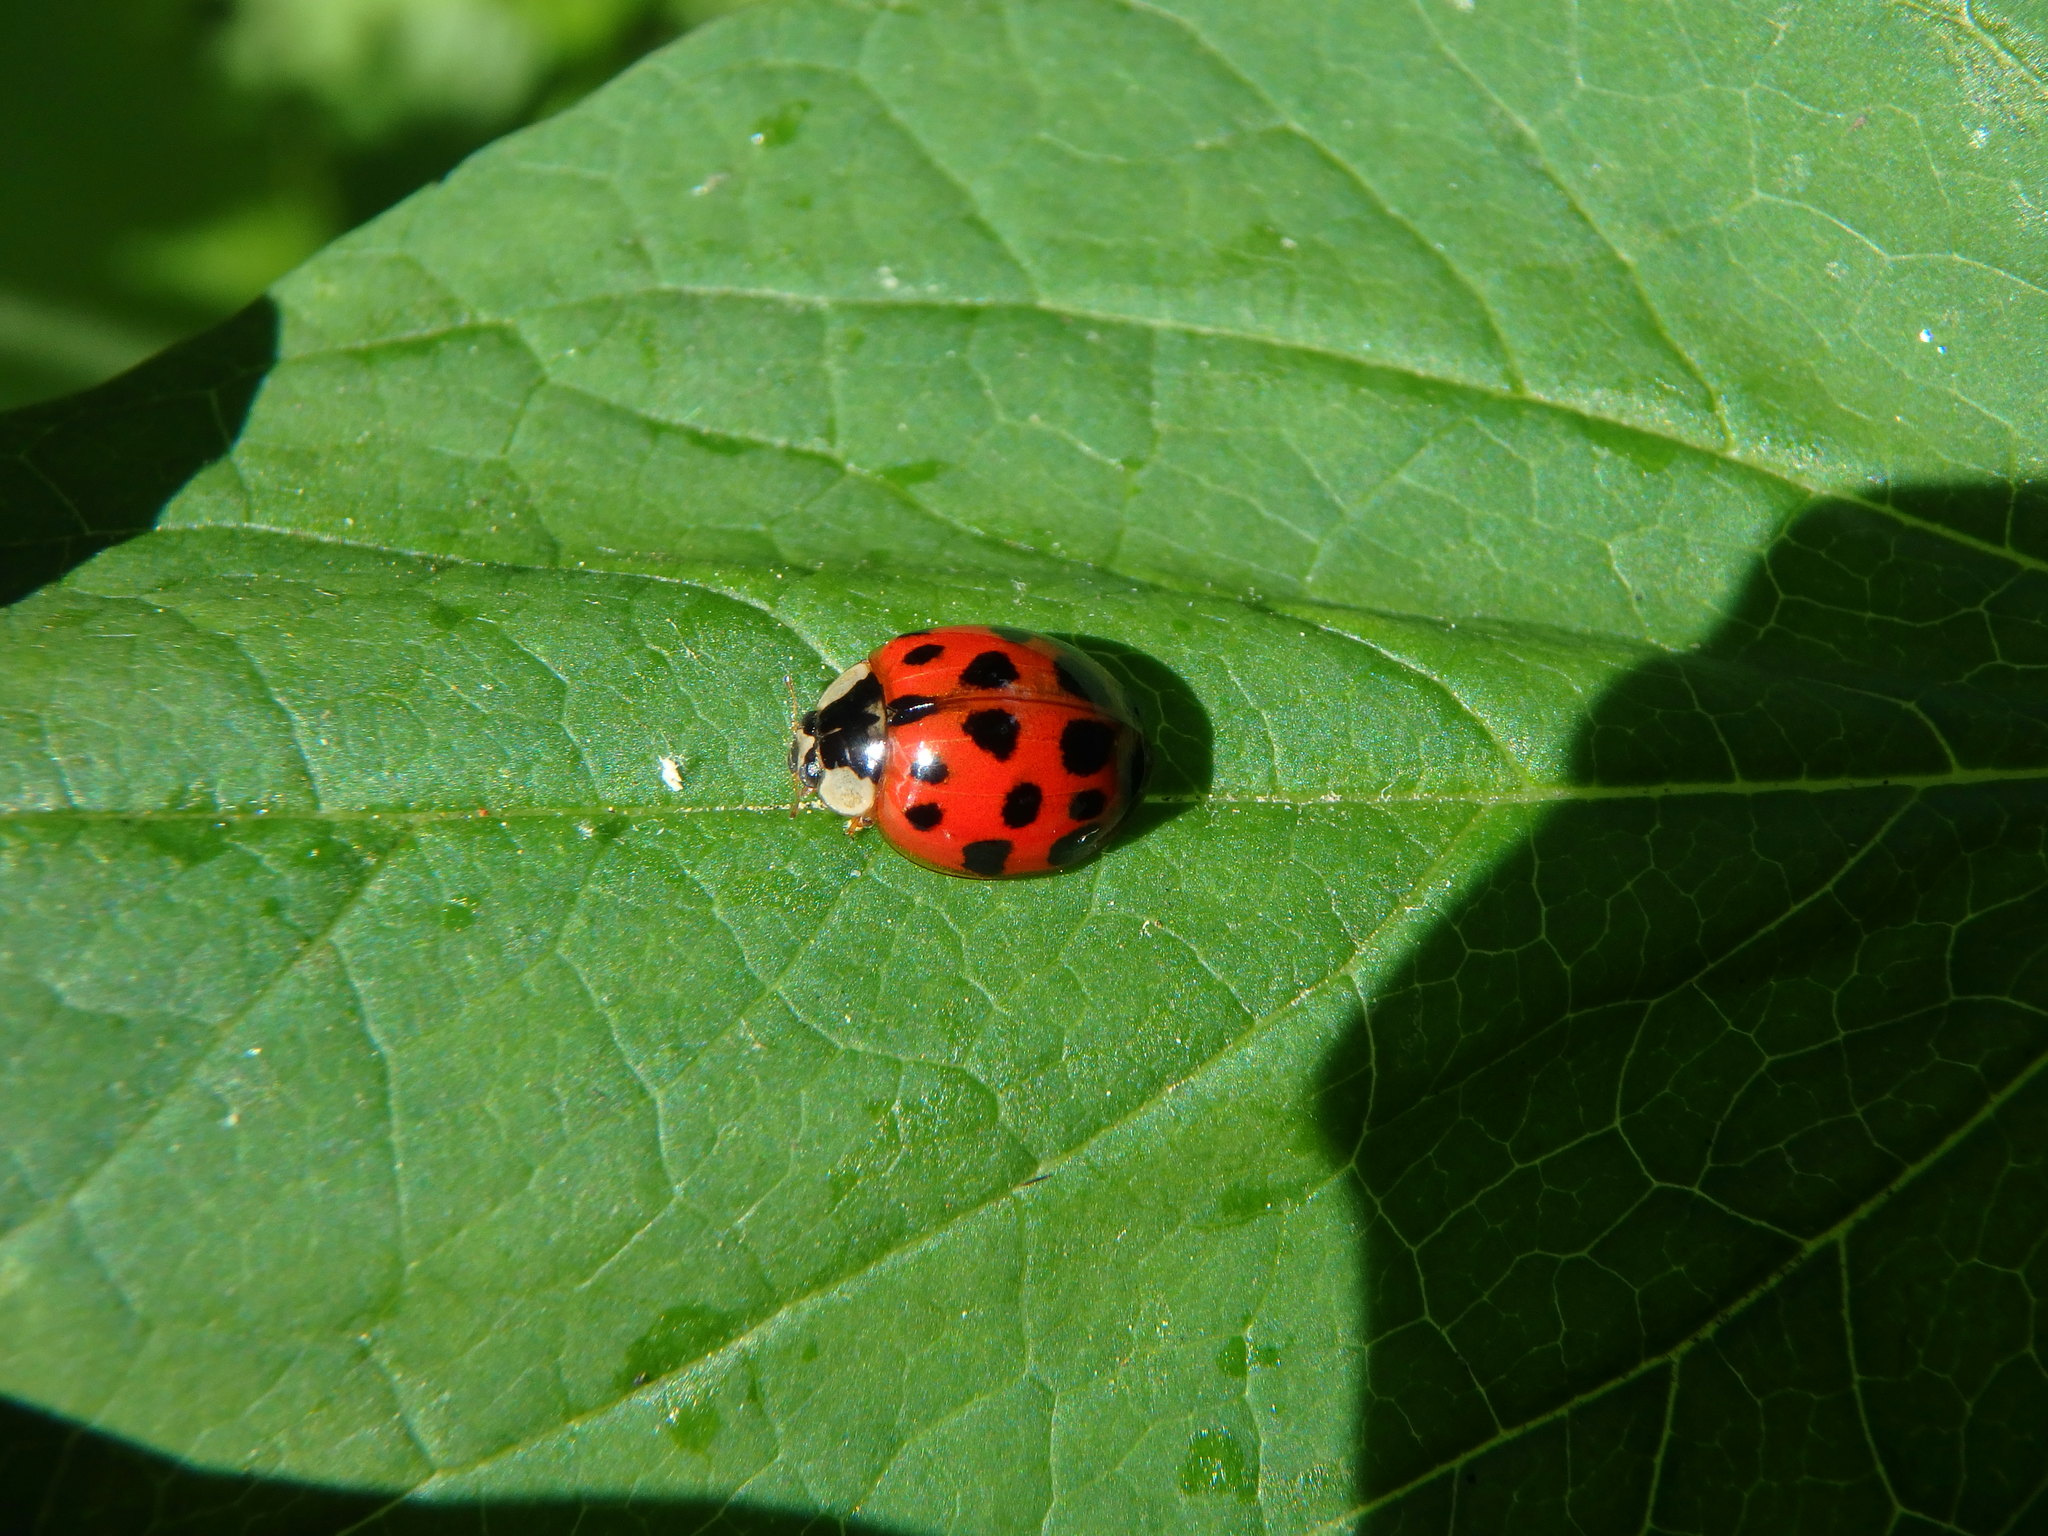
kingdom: Animalia
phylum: Arthropoda
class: Insecta
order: Coleoptera
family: Coccinellidae
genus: Harmonia
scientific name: Harmonia axyridis
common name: Harlequin ladybird
